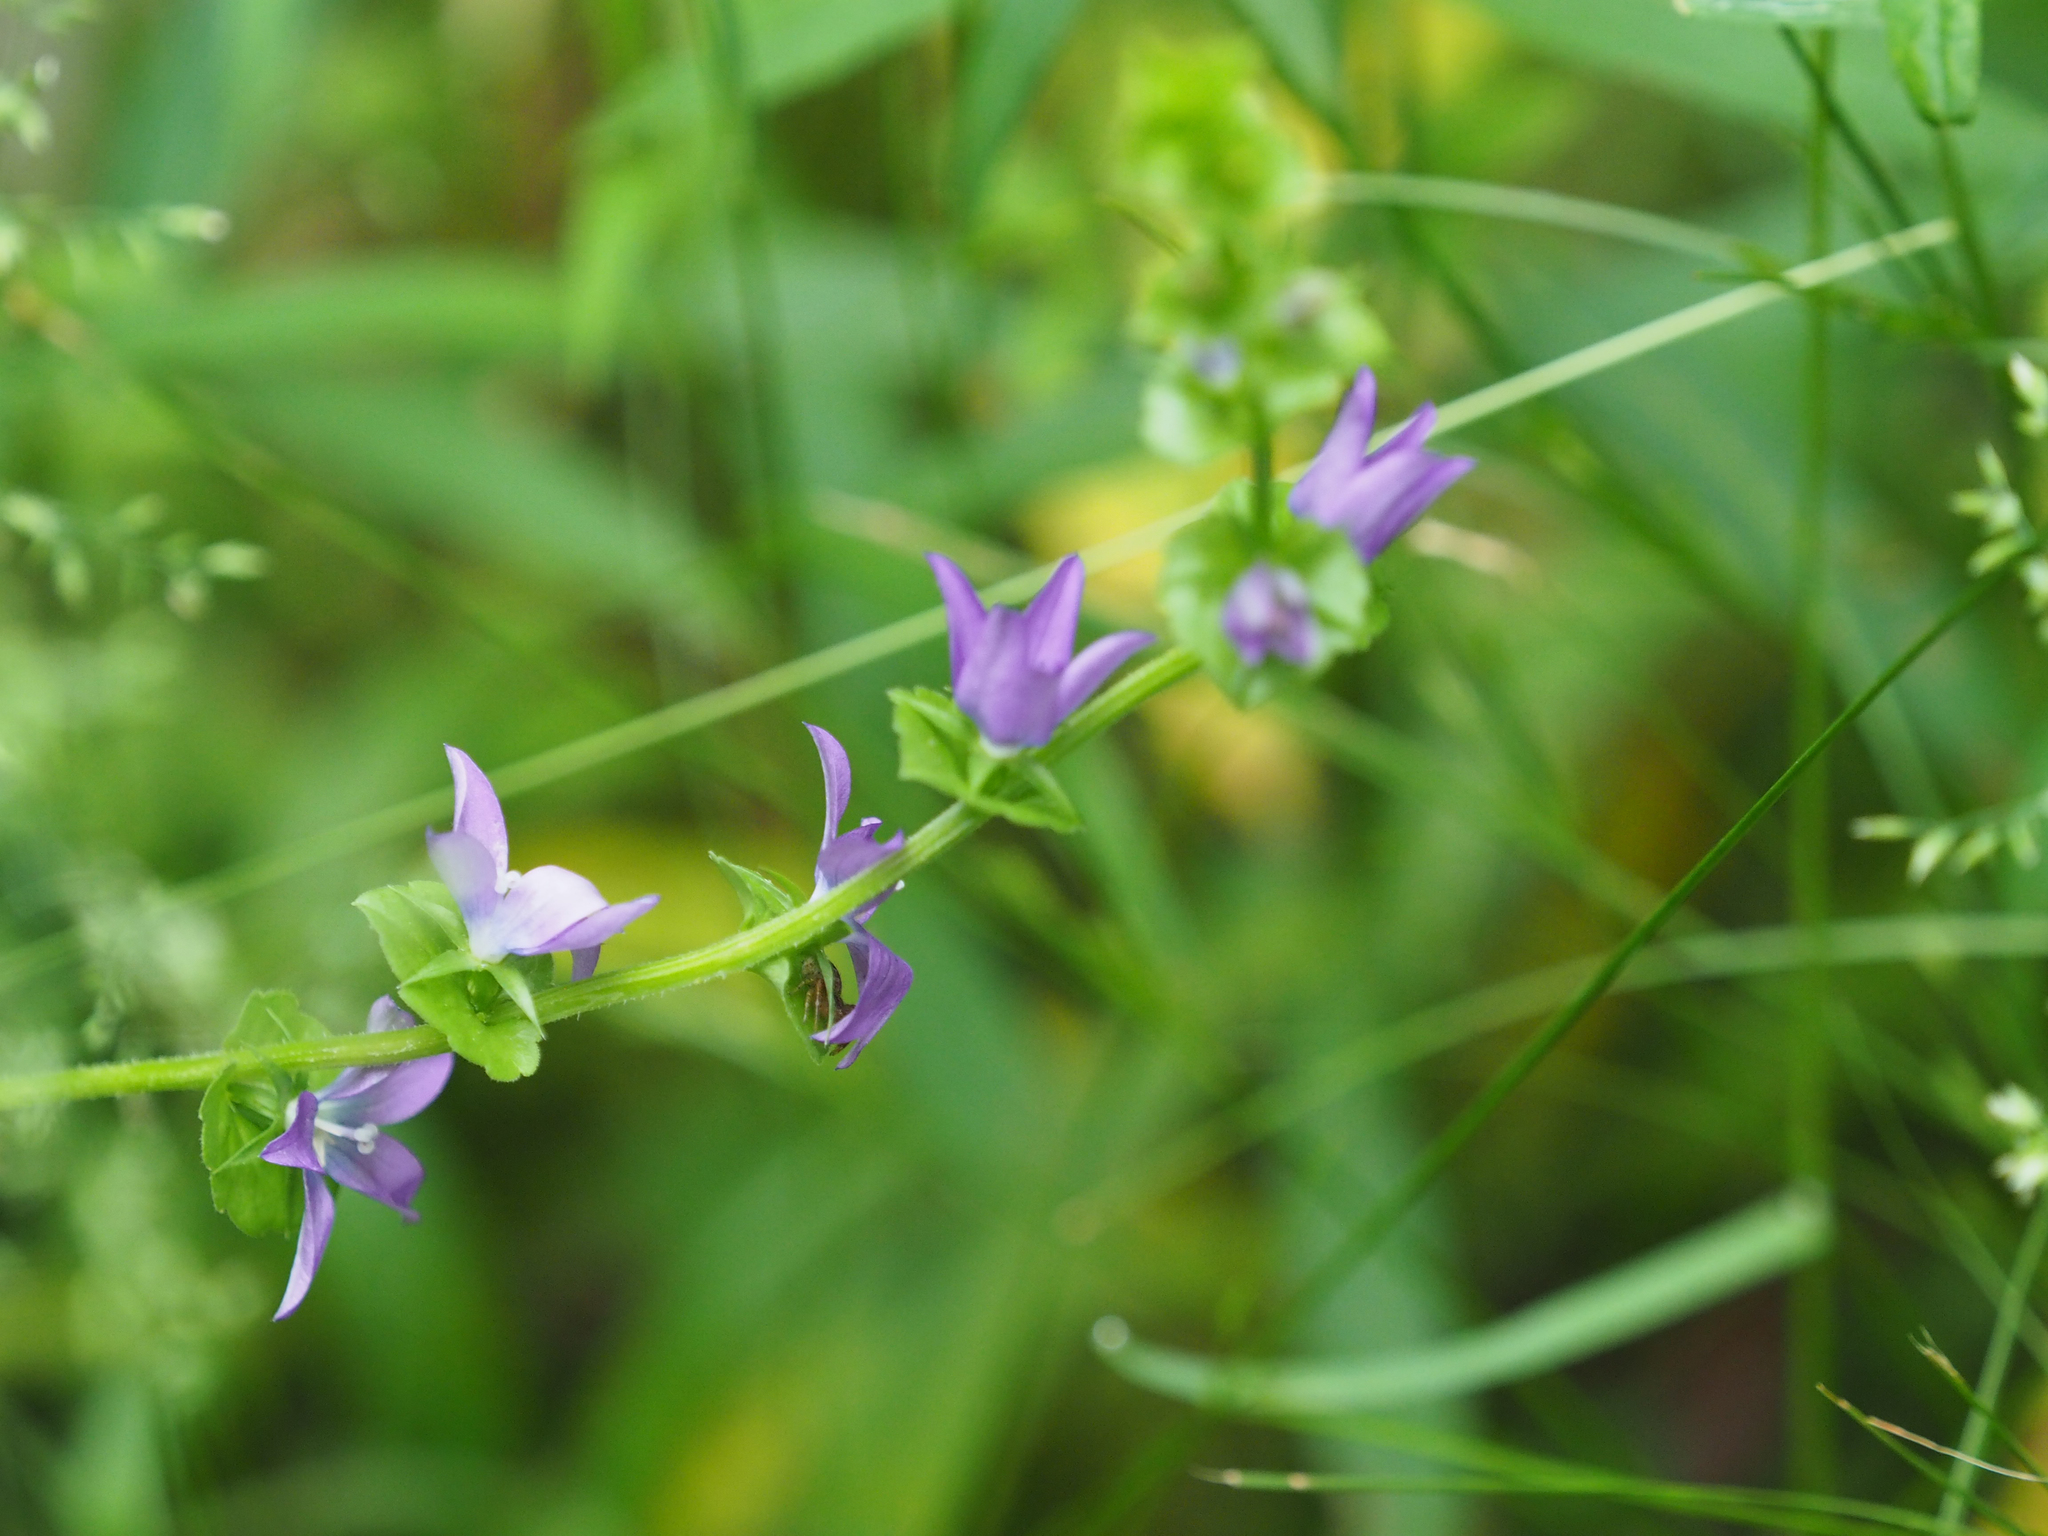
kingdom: Plantae
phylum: Tracheophyta
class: Magnoliopsida
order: Asterales
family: Campanulaceae
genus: Triodanis
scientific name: Triodanis perfoliata
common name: Clasping venus' looking-glass
